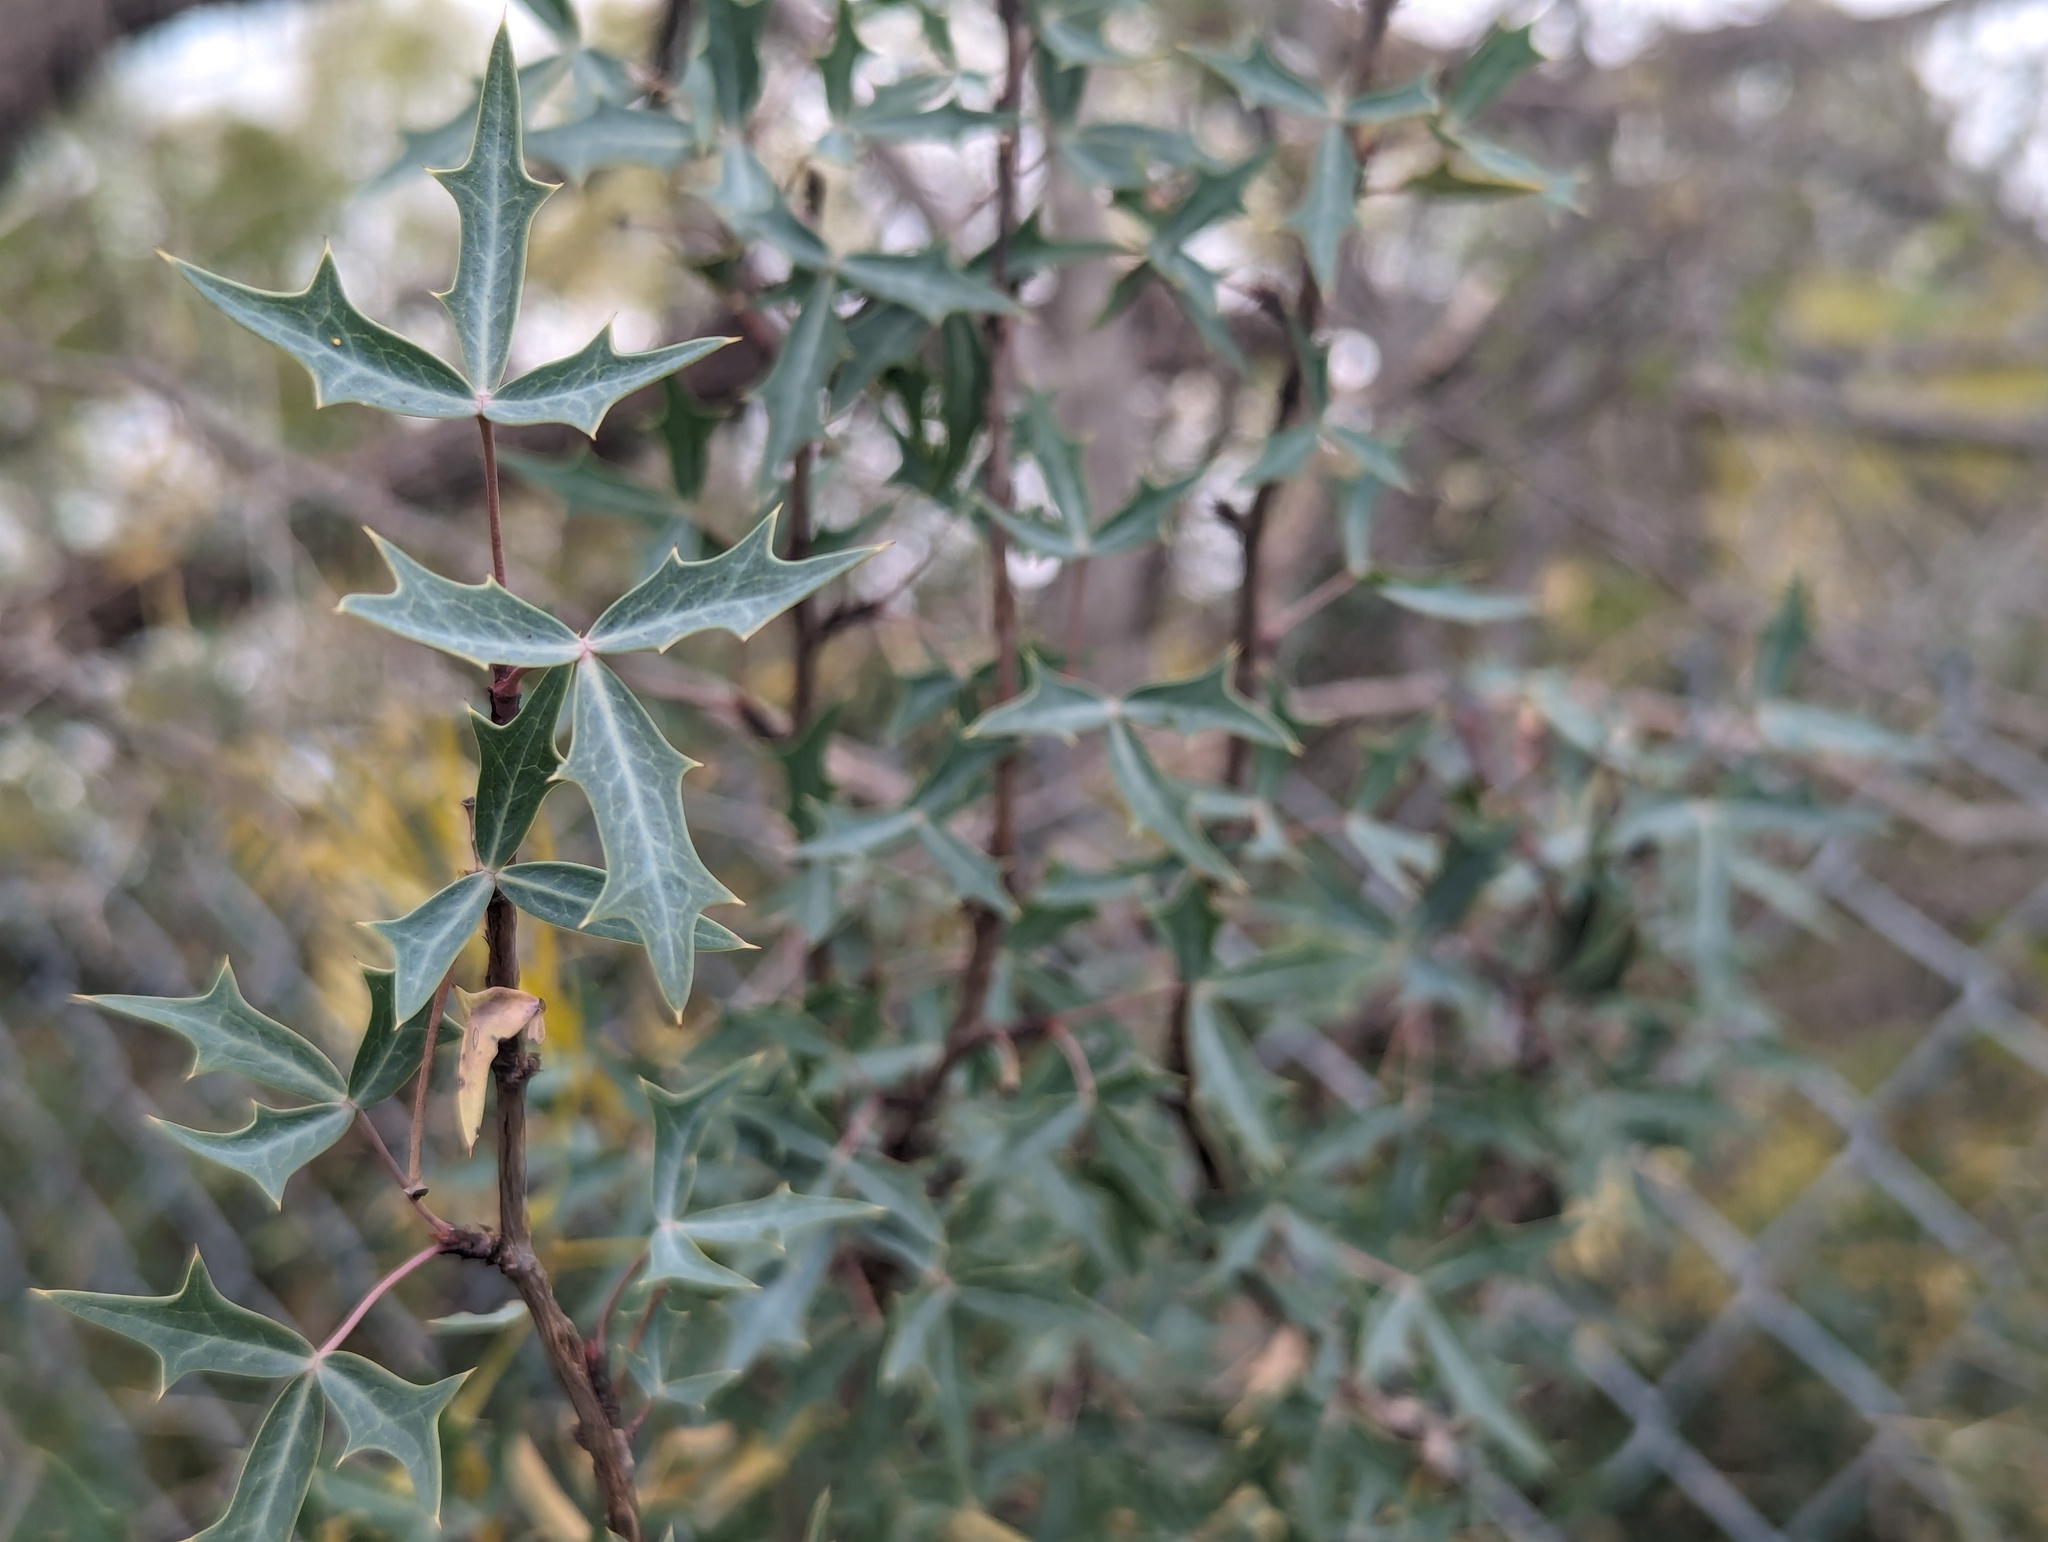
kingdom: Plantae
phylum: Tracheophyta
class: Magnoliopsida
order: Ranunculales
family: Berberidaceae
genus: Alloberberis
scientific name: Alloberberis trifoliolata
